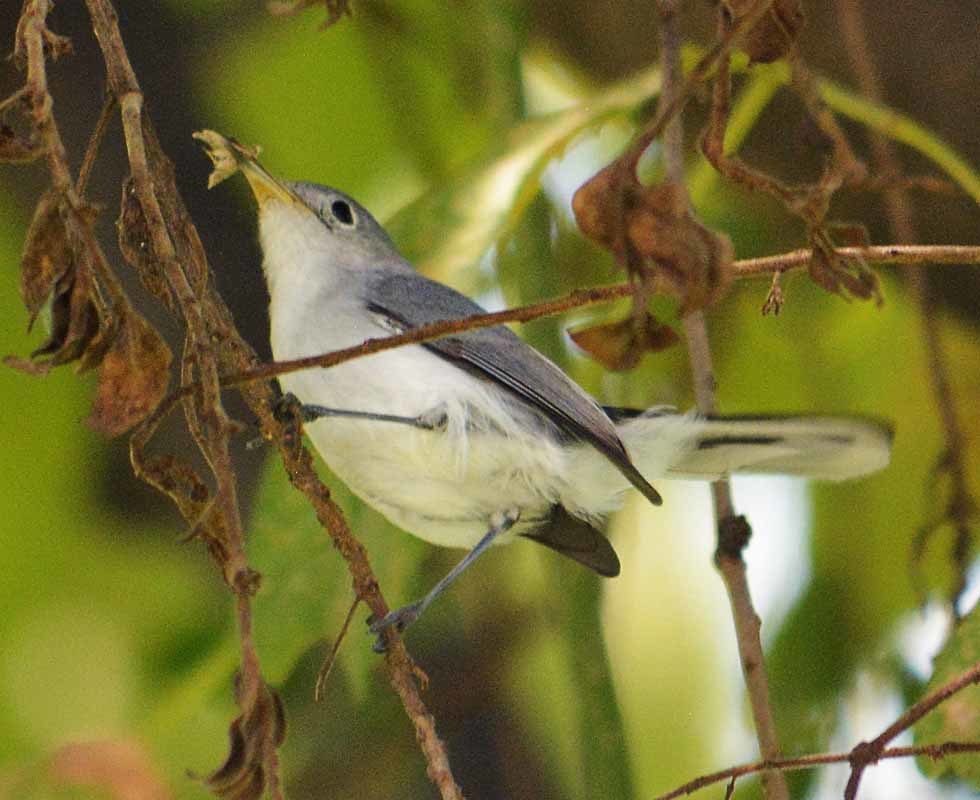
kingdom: Animalia
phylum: Chordata
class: Aves
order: Passeriformes
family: Polioptilidae
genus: Polioptila
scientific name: Polioptila caerulea
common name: Blue-gray gnatcatcher
